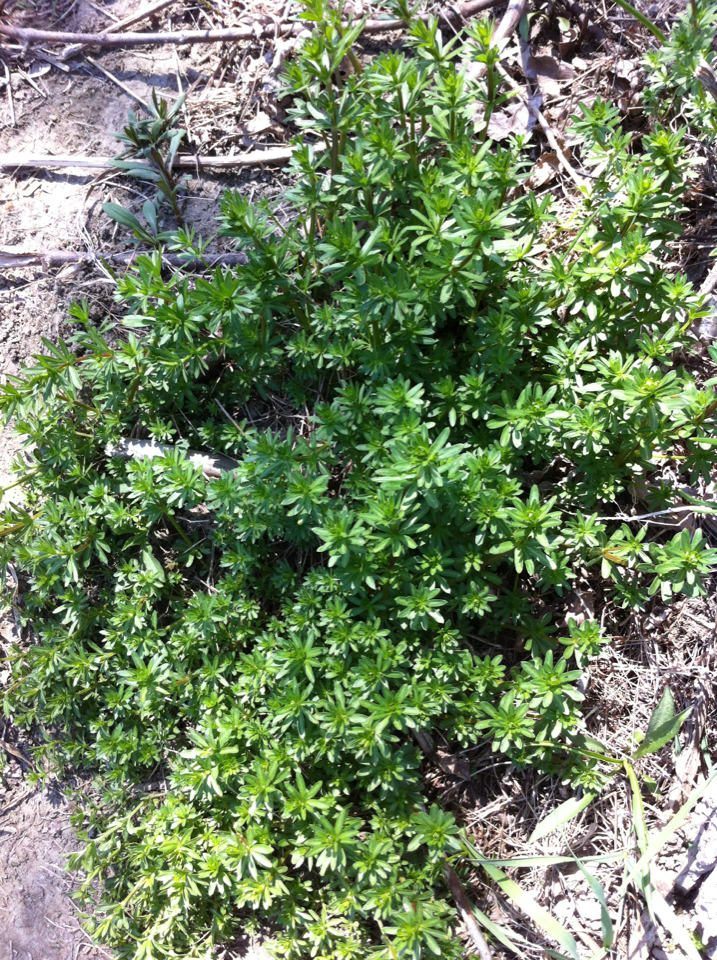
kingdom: Plantae
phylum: Tracheophyta
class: Magnoliopsida
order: Gentianales
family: Rubiaceae
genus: Galium
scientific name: Galium mollugo
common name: Hedge bedstraw
